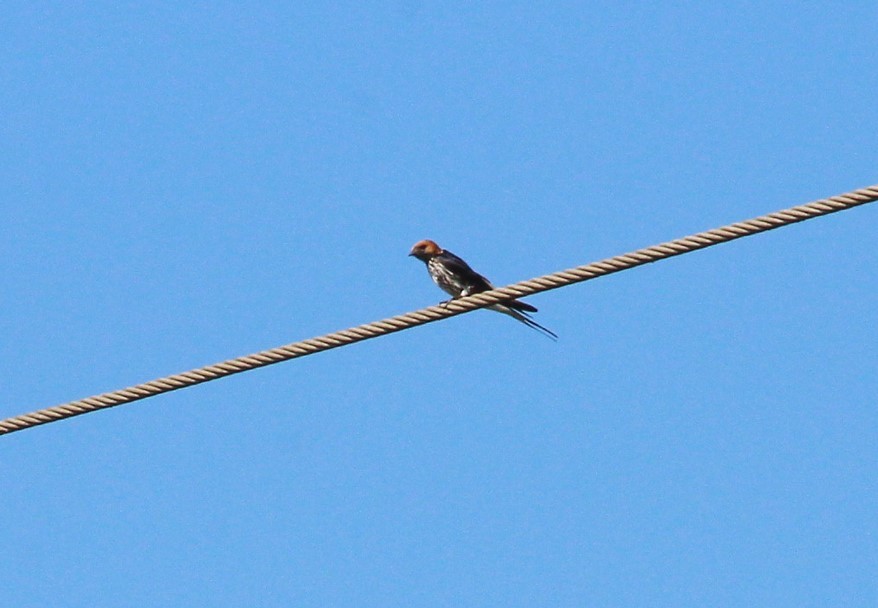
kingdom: Animalia
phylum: Chordata
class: Aves
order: Passeriformes
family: Hirundinidae
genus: Cecropis
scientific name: Cecropis abyssinica
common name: Lesser striped-swallow
